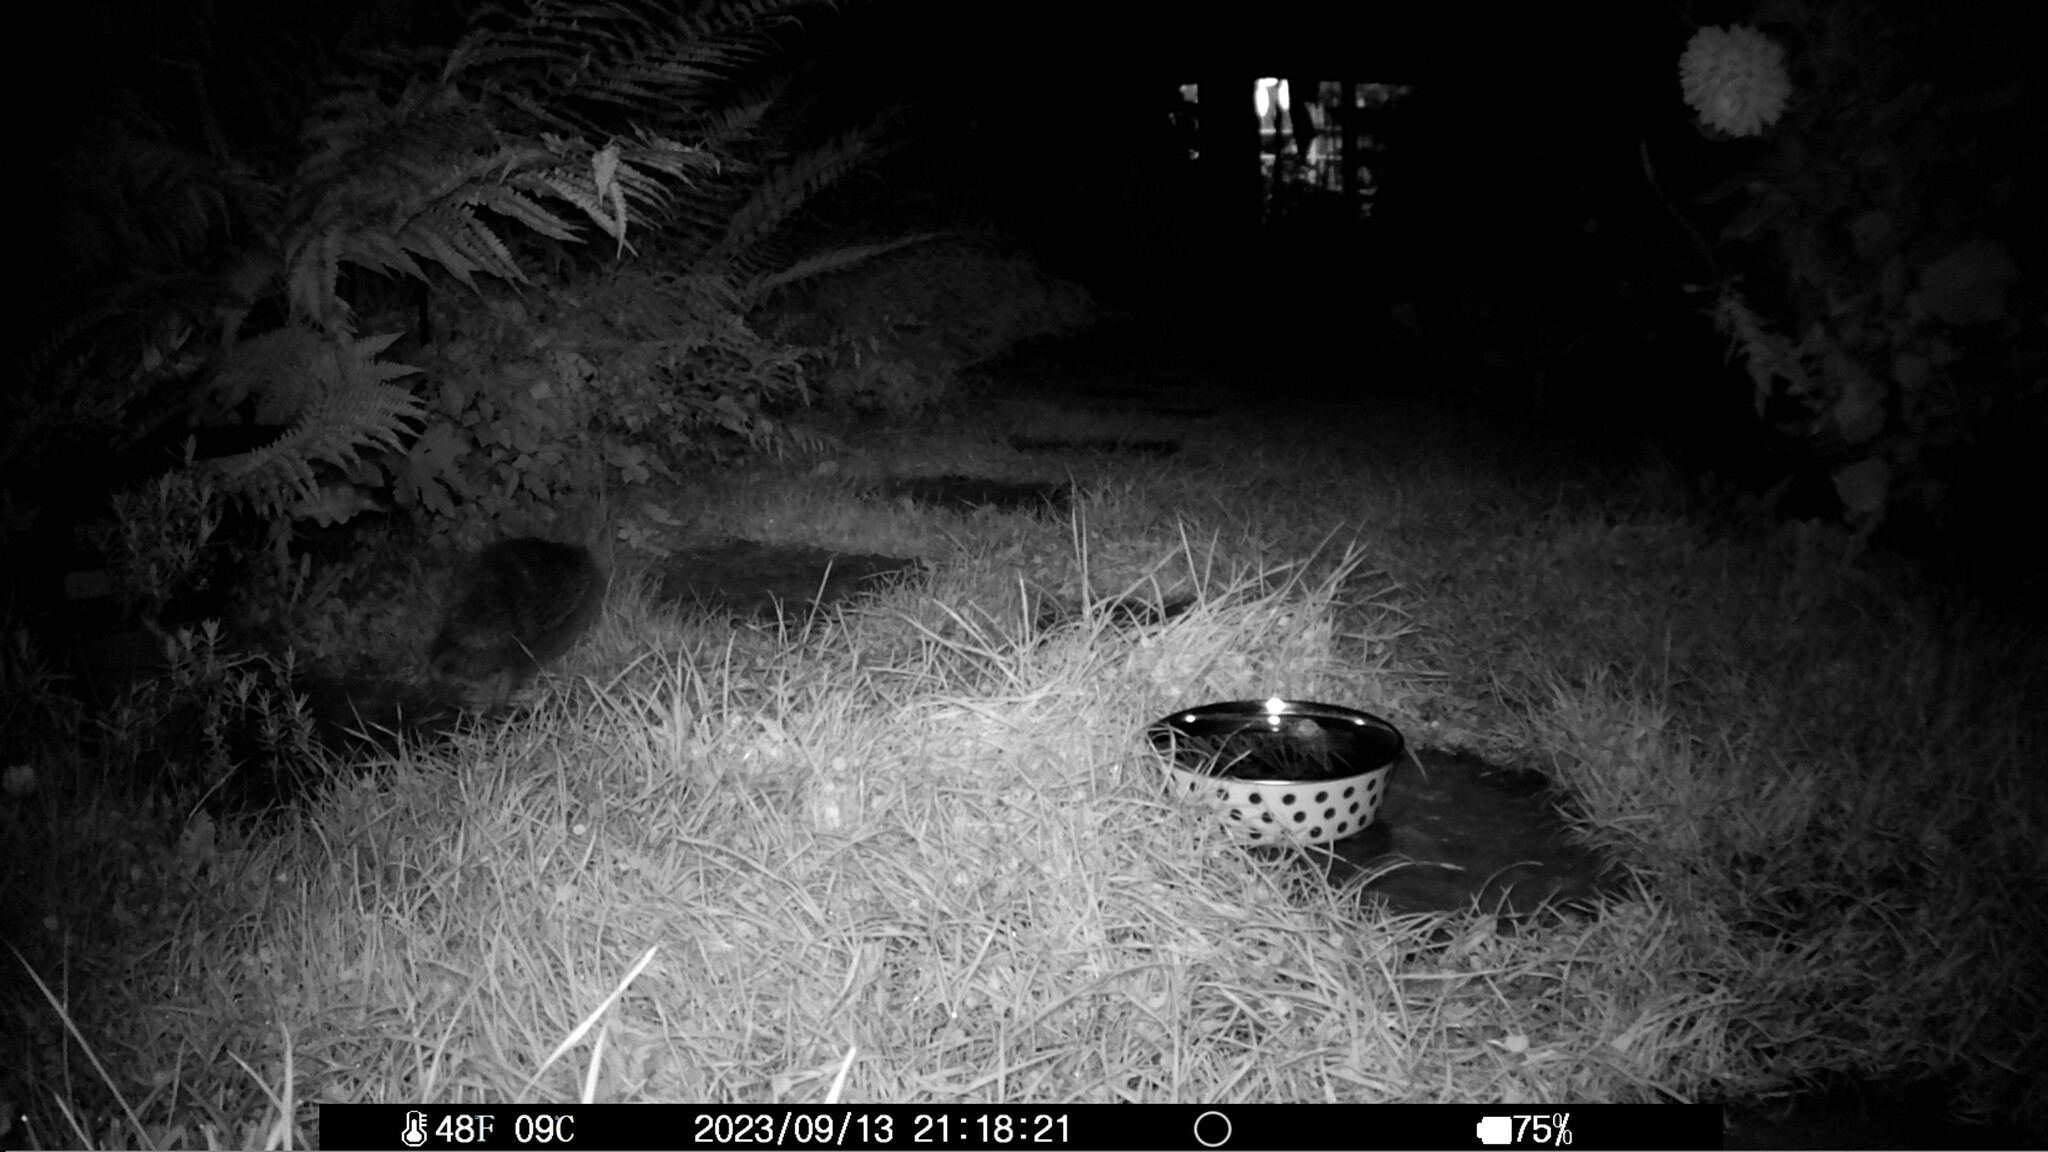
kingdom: Animalia
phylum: Chordata
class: Mammalia
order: Erinaceomorpha
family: Erinaceidae
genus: Erinaceus
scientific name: Erinaceus europaeus
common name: West european hedgehog
